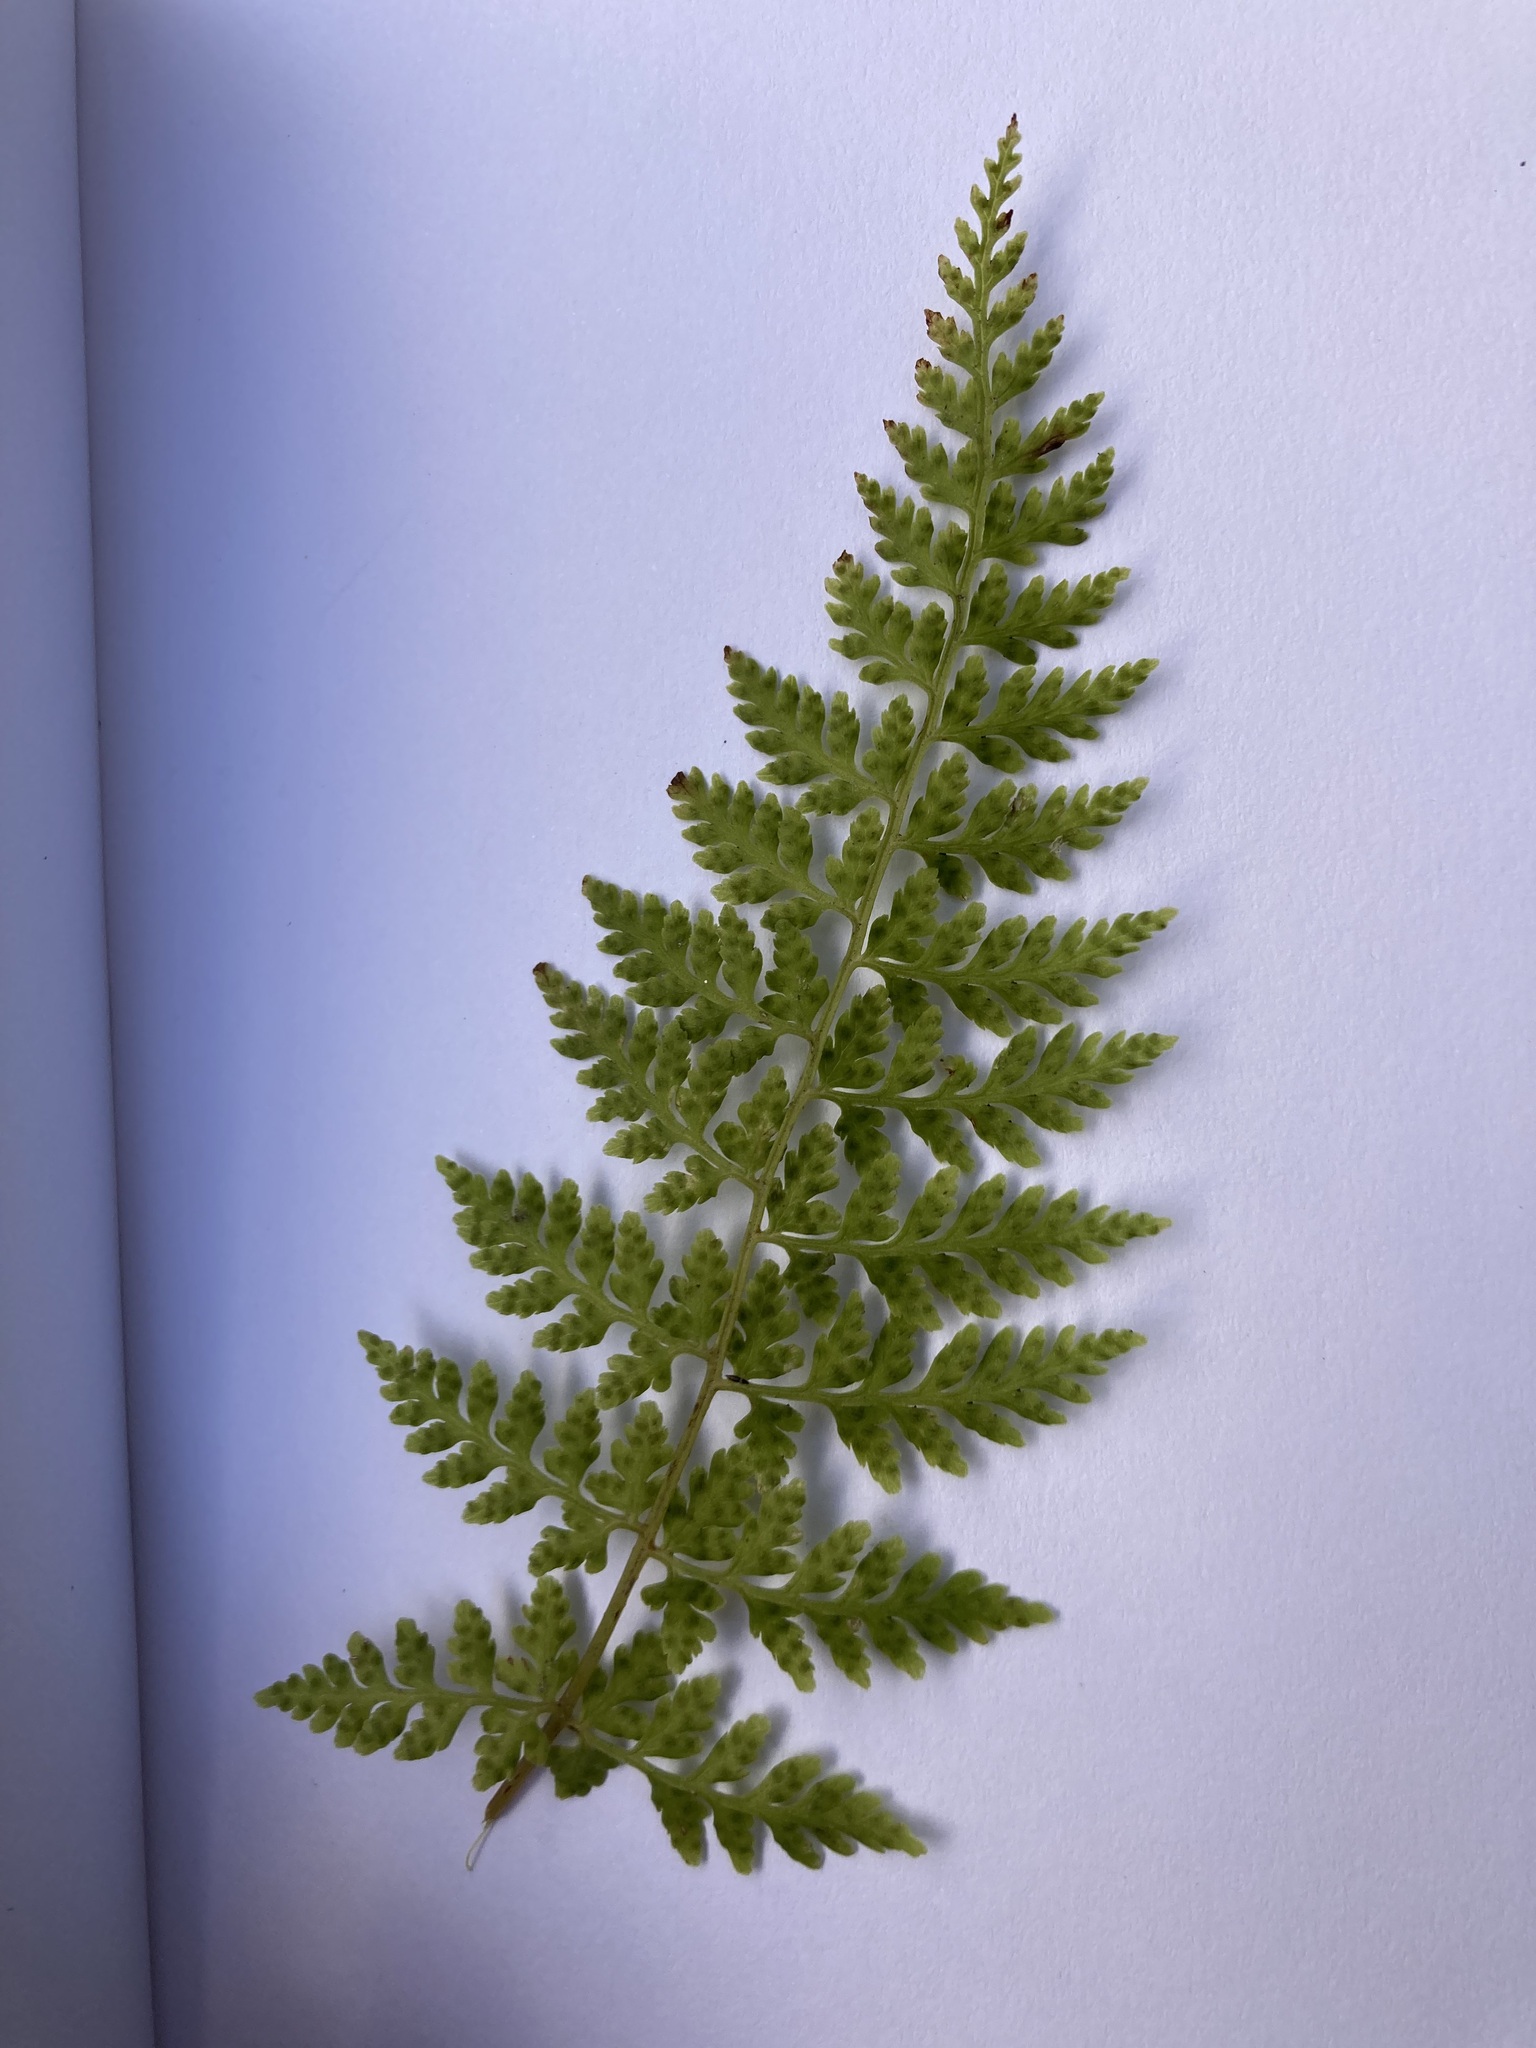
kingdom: Plantae
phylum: Tracheophyta
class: Polypodiopsida
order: Polypodiales
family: Cystopteridaceae
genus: Cystopteris
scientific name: Cystopteris fragilis
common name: Brittle bladder fern
